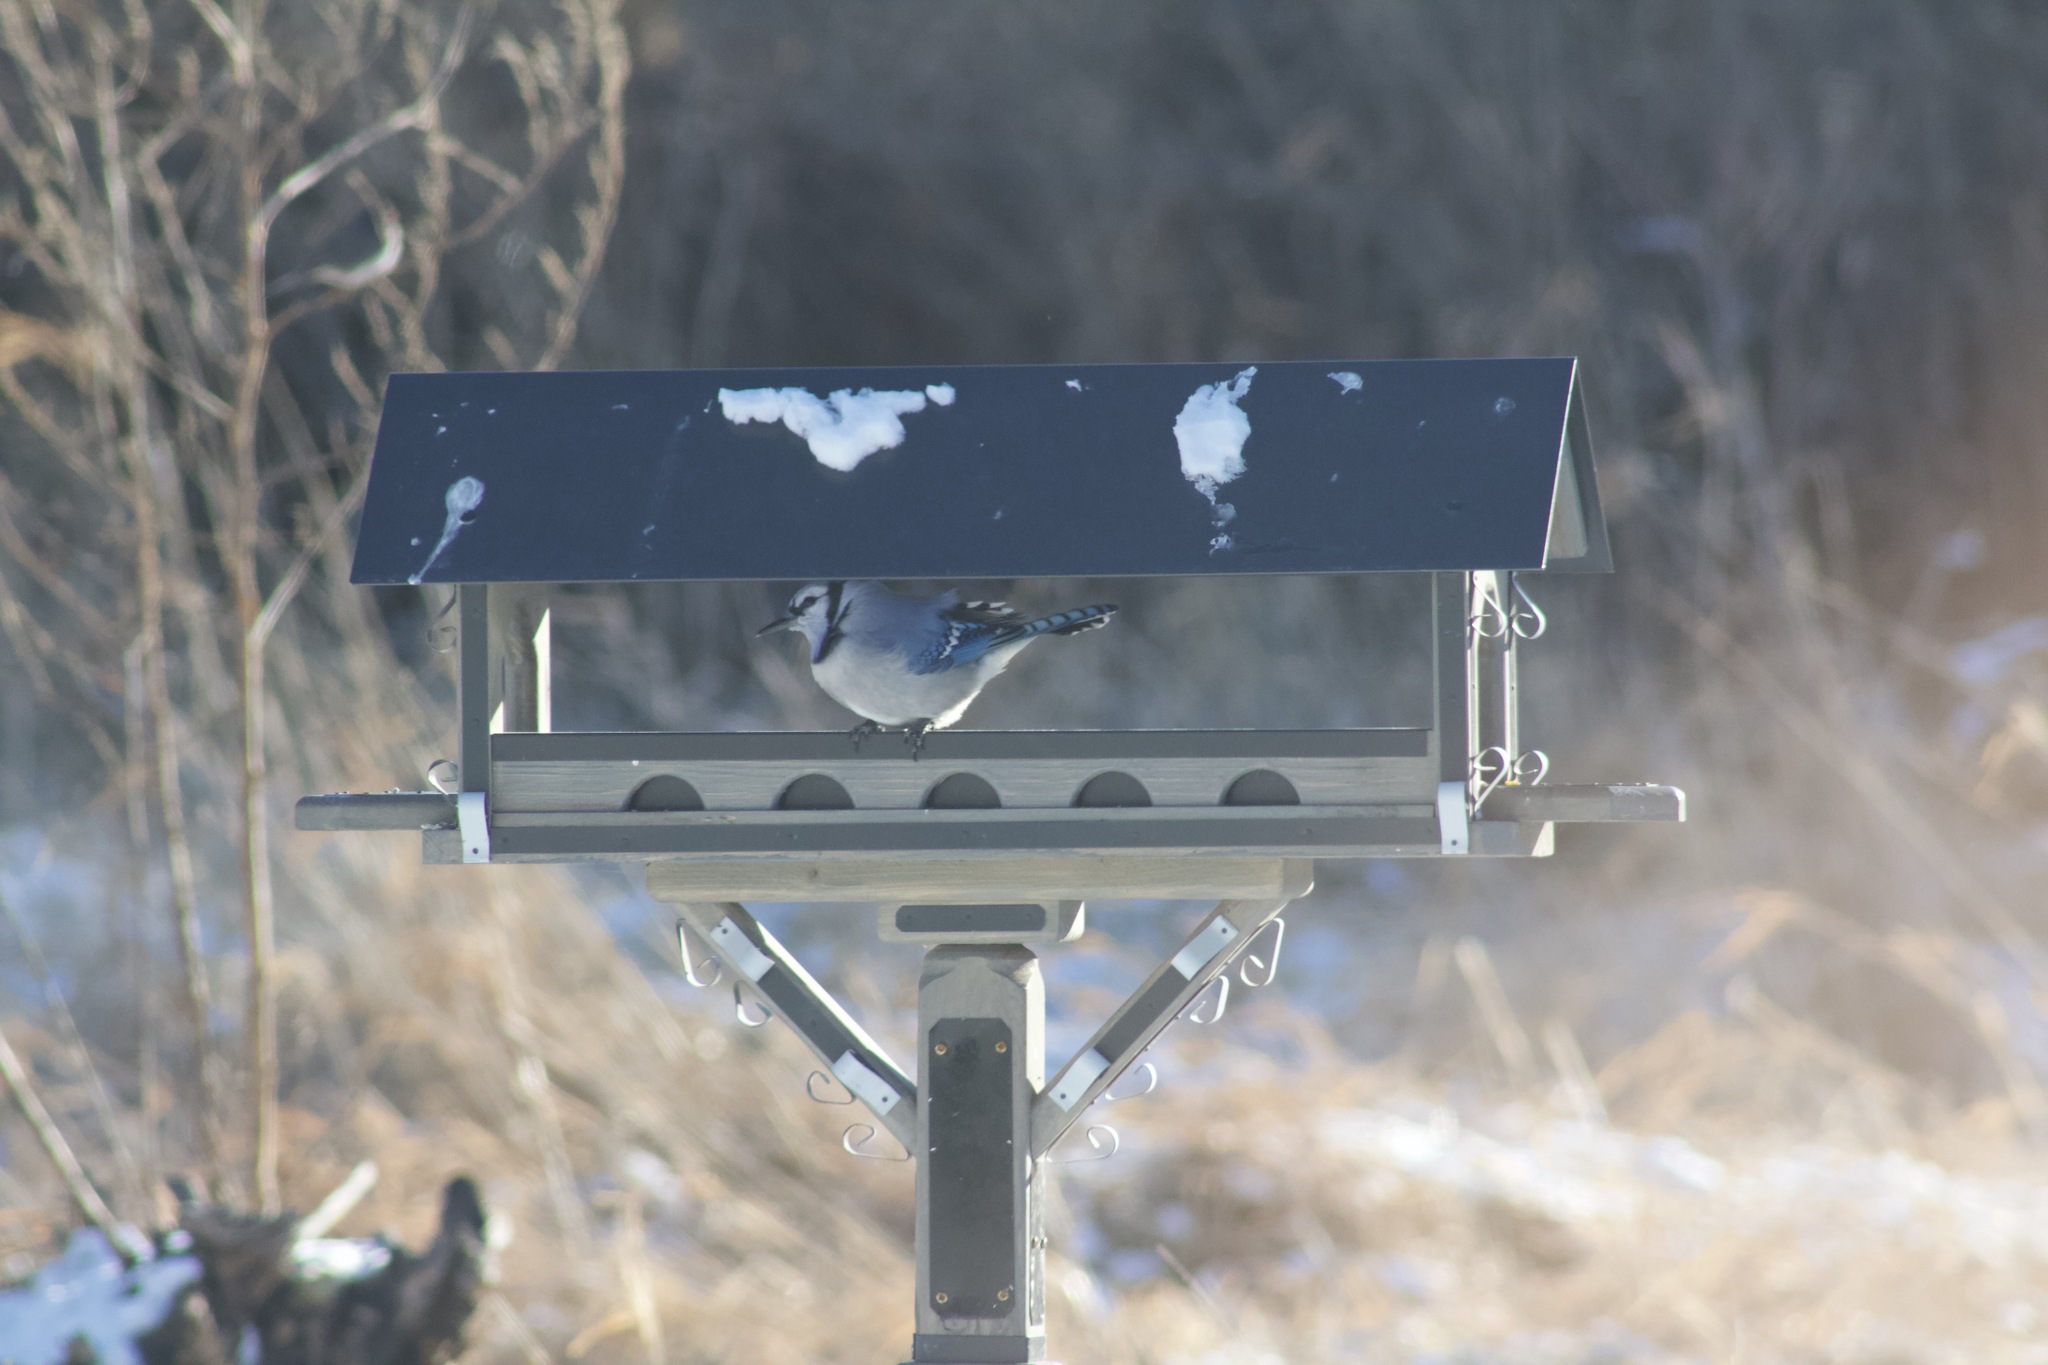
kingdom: Animalia
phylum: Chordata
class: Aves
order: Passeriformes
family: Corvidae
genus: Cyanocitta
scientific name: Cyanocitta cristata
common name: Blue jay
